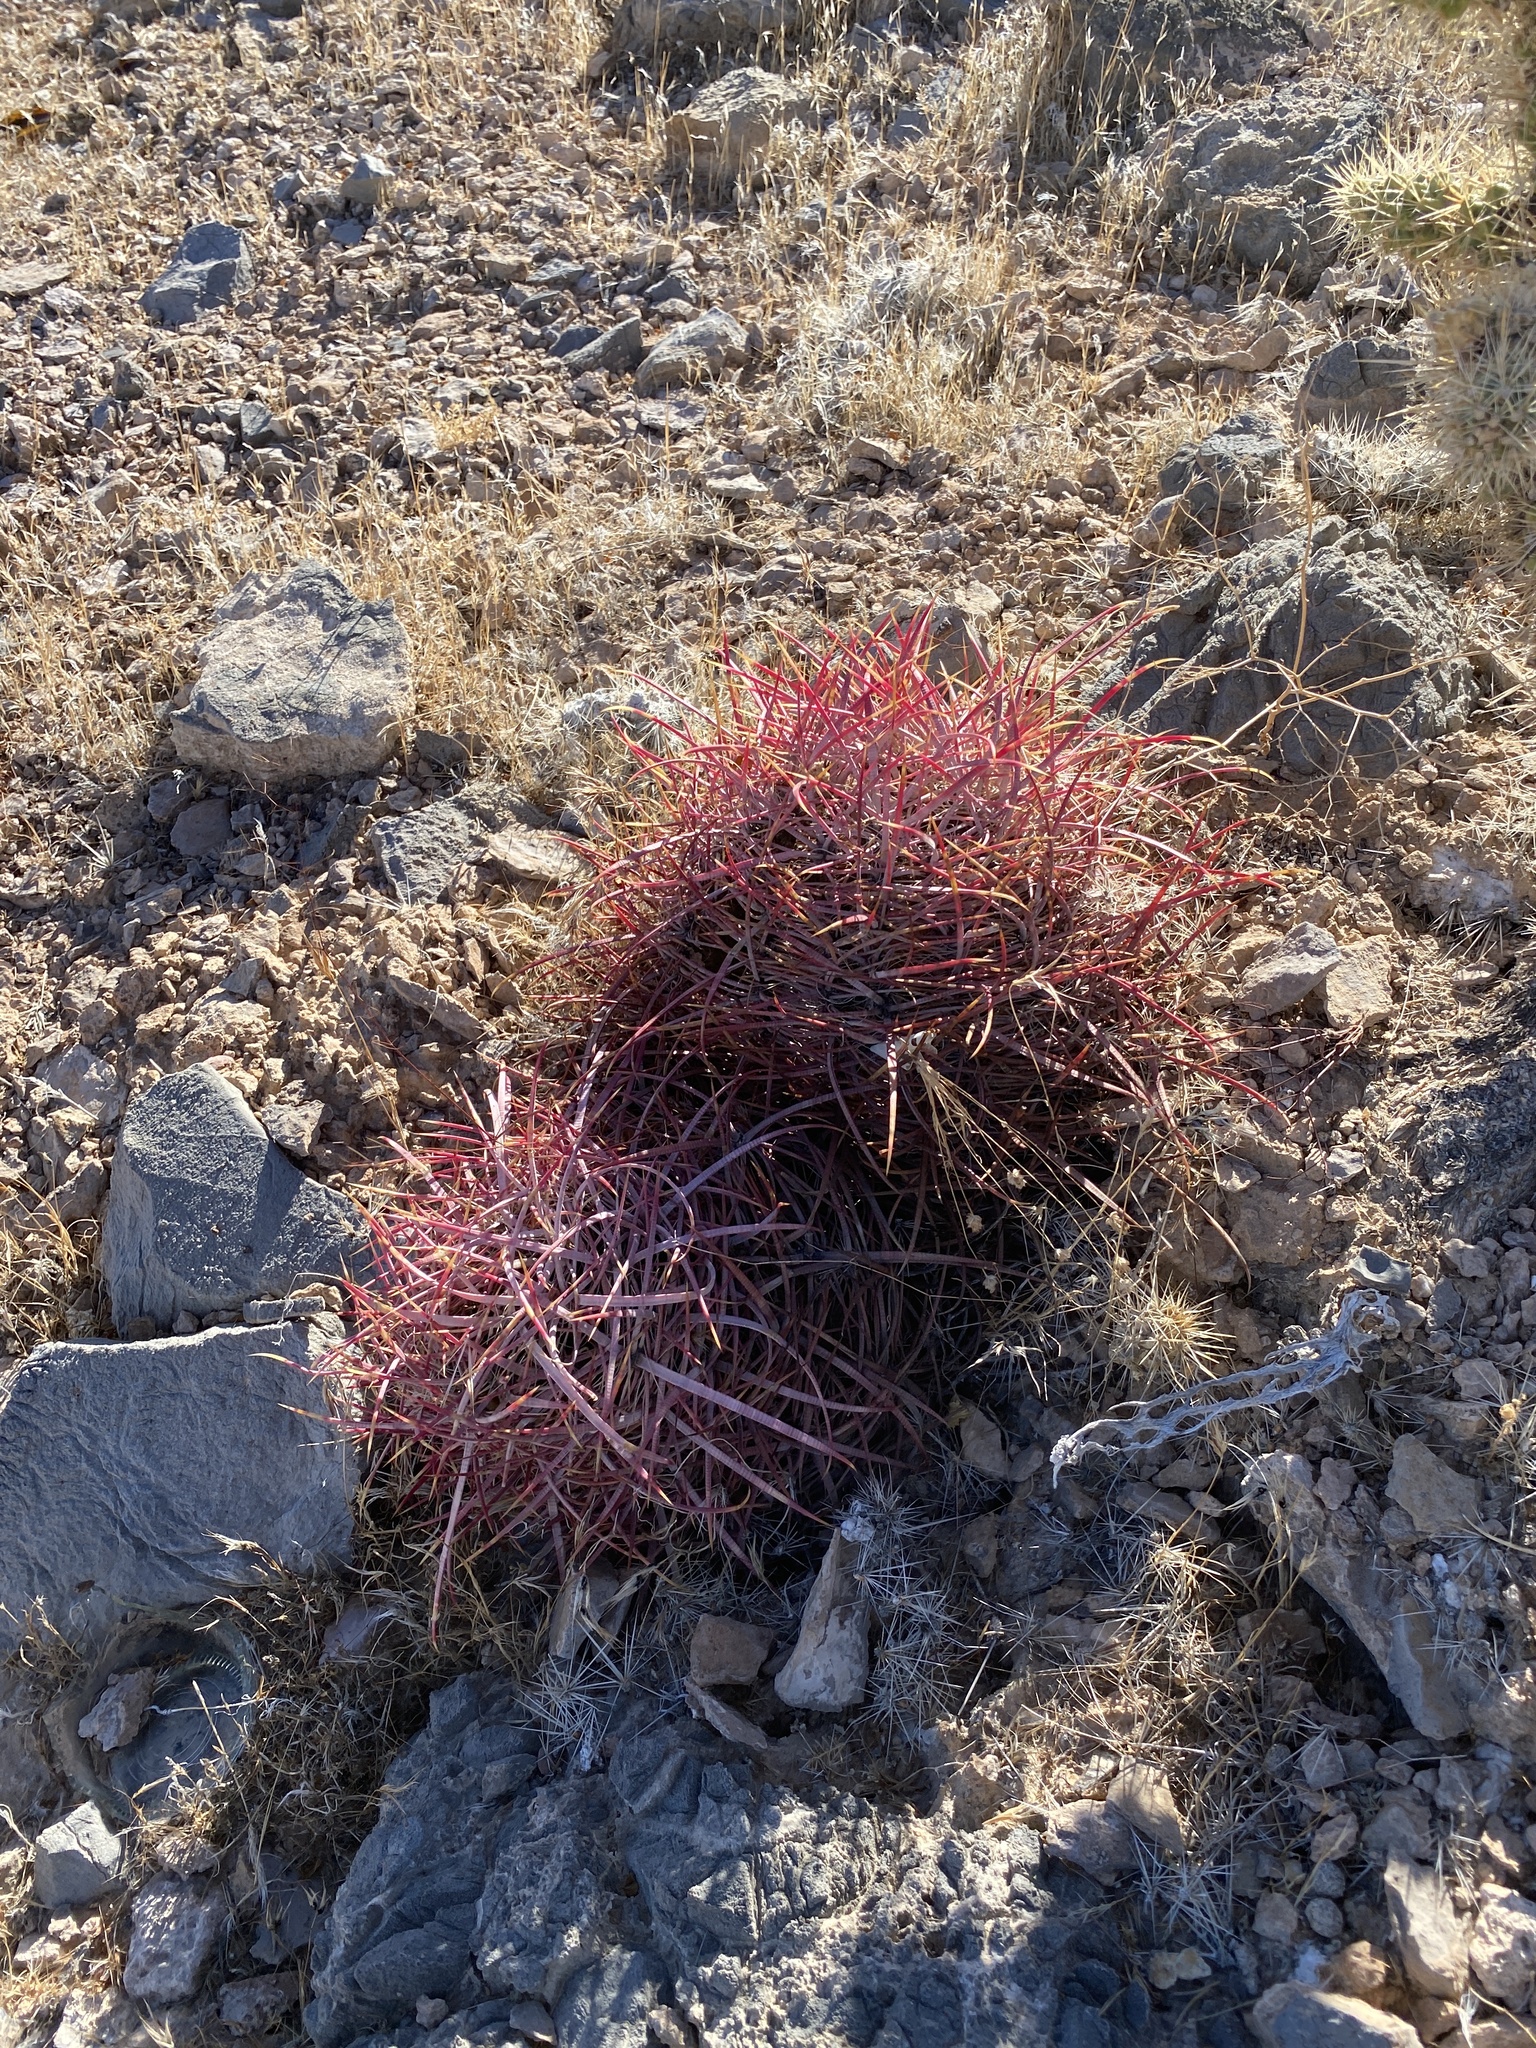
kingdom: Plantae
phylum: Tracheophyta
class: Magnoliopsida
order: Caryophyllales
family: Cactaceae
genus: Ferocactus
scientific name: Ferocactus cylindraceus
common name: California barrel cactus
